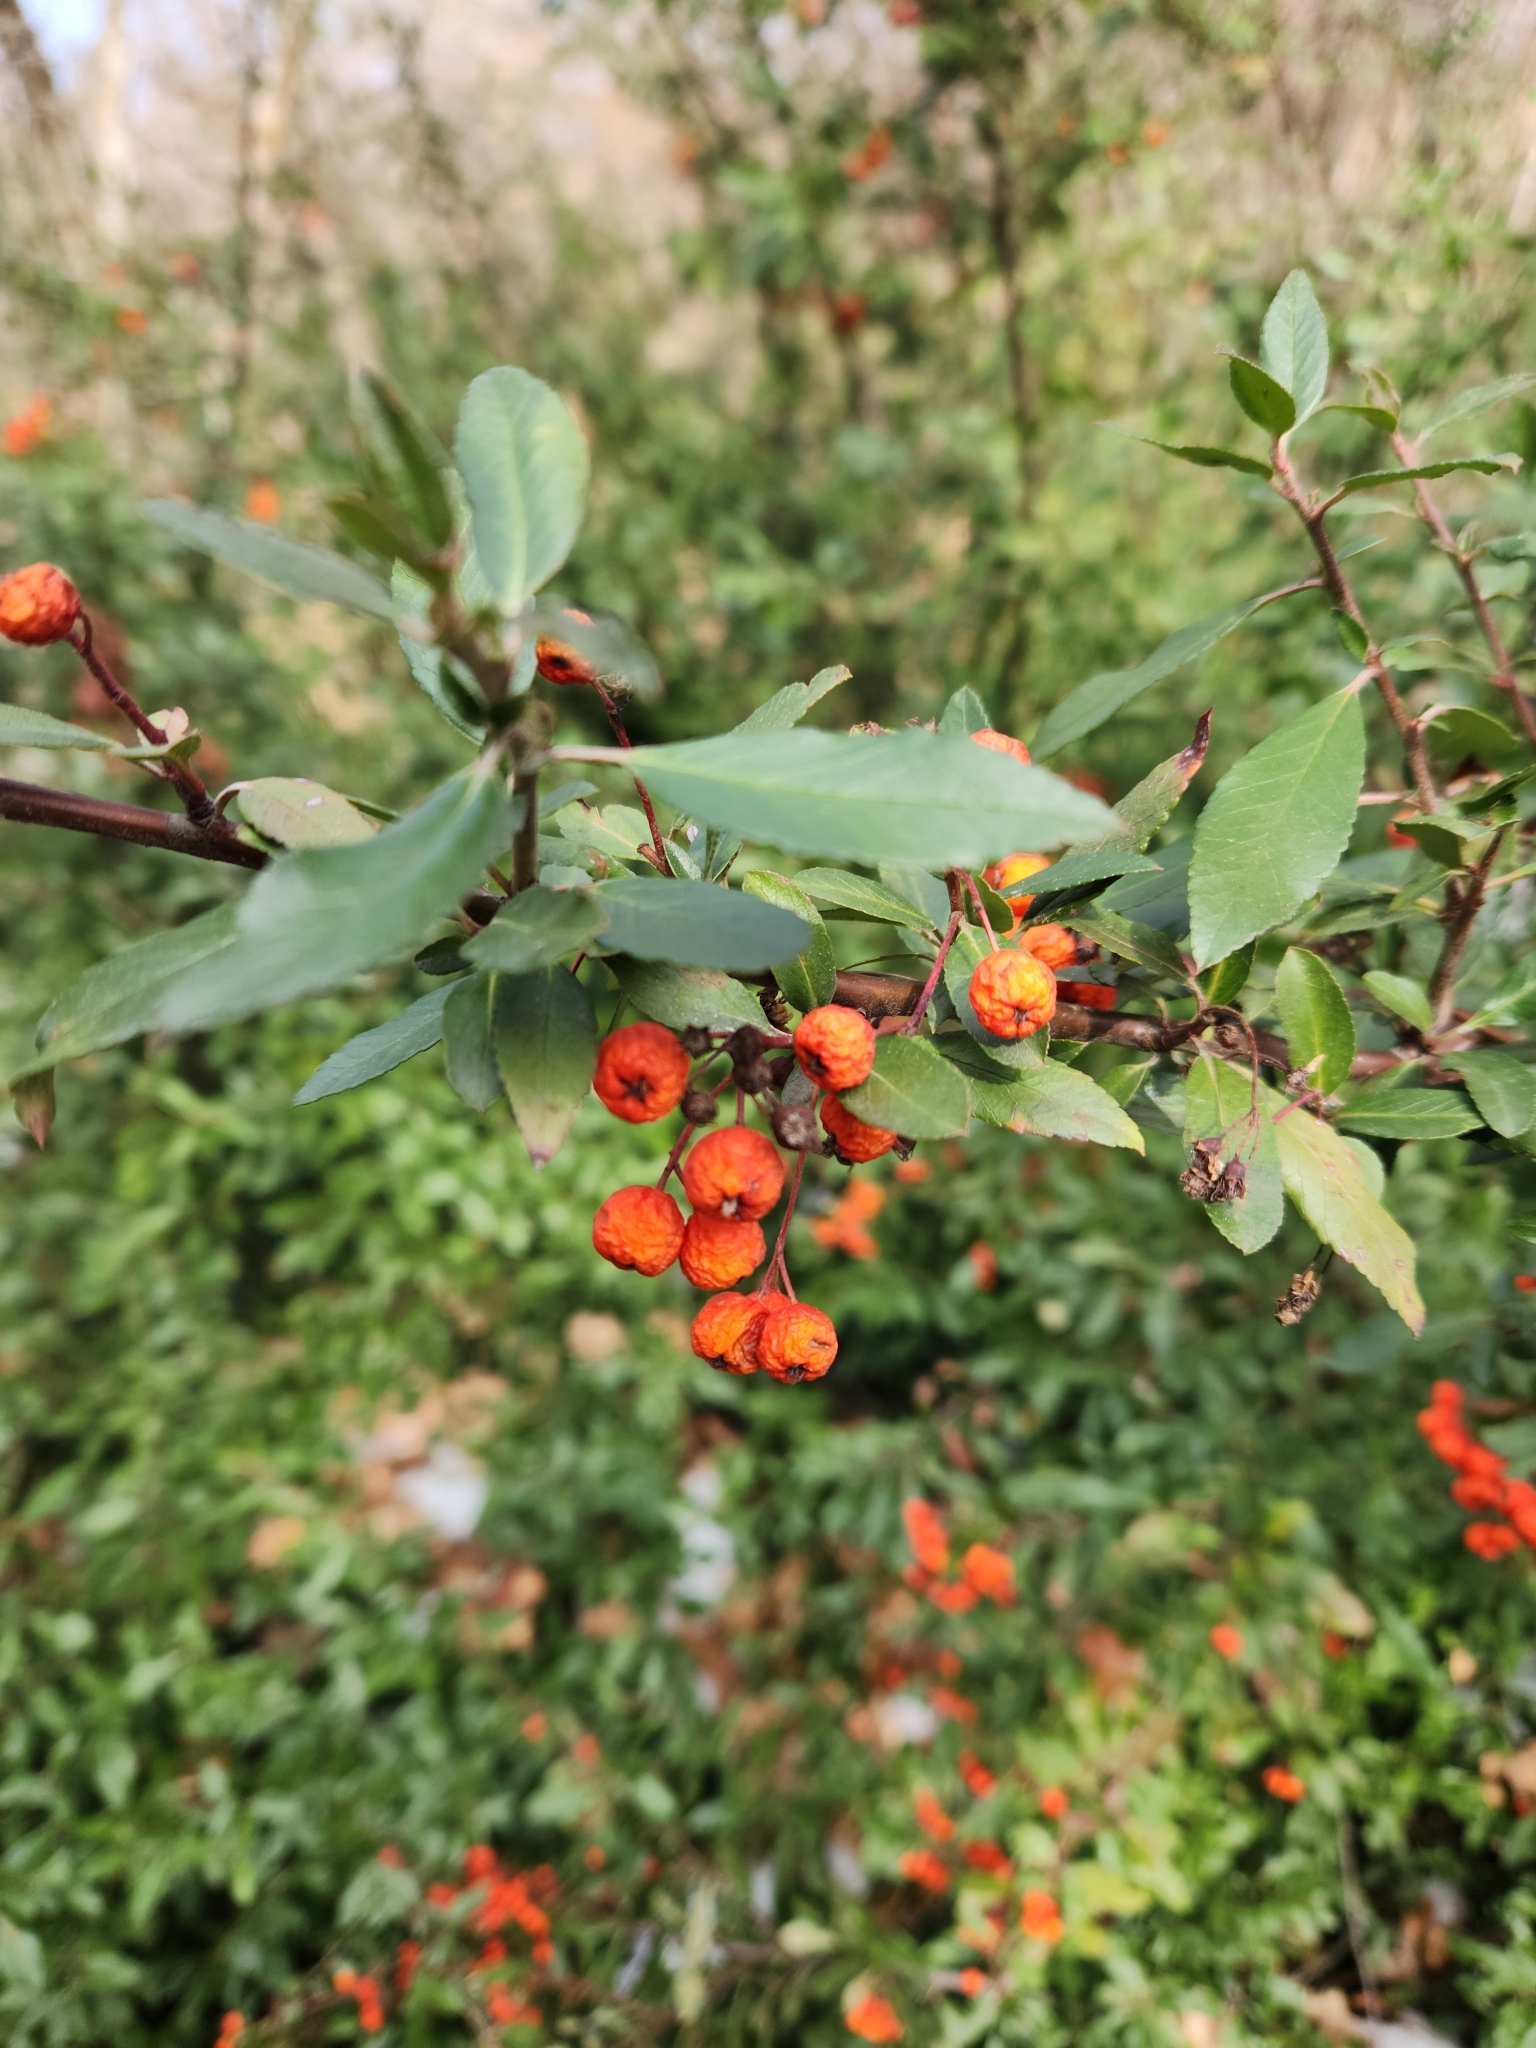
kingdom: Plantae
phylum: Tracheophyta
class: Magnoliopsida
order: Rosales
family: Rosaceae
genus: Pyracantha
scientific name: Pyracantha coccinea
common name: Firethorn
